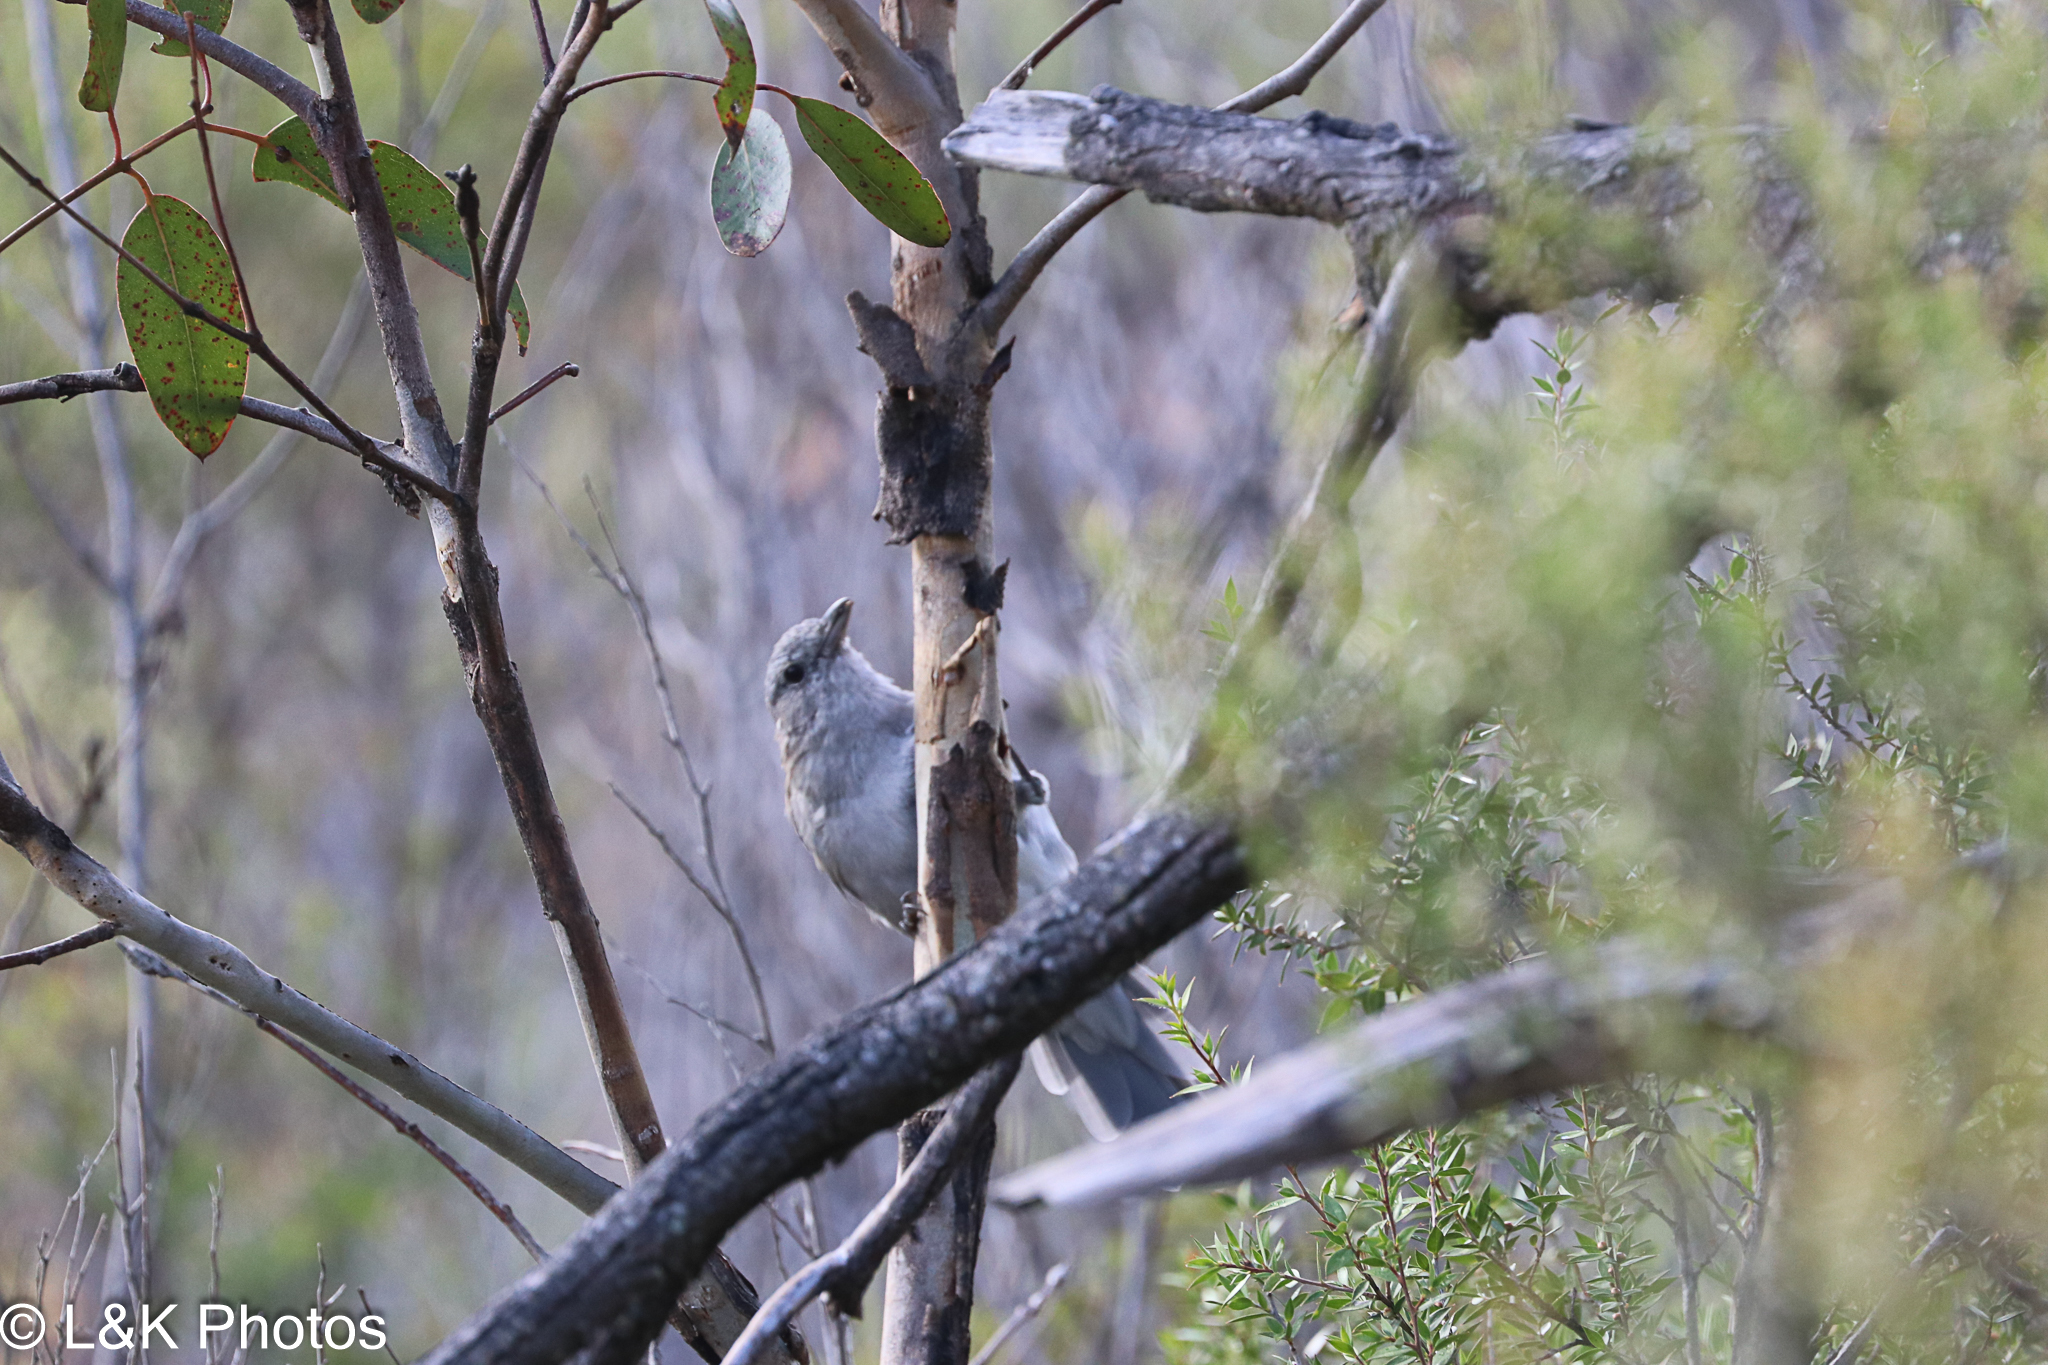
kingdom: Animalia
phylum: Chordata
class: Aves
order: Passeriformes
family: Pachycephalidae
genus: Colluricincla
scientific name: Colluricincla harmonica
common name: Grey shrikethrush
